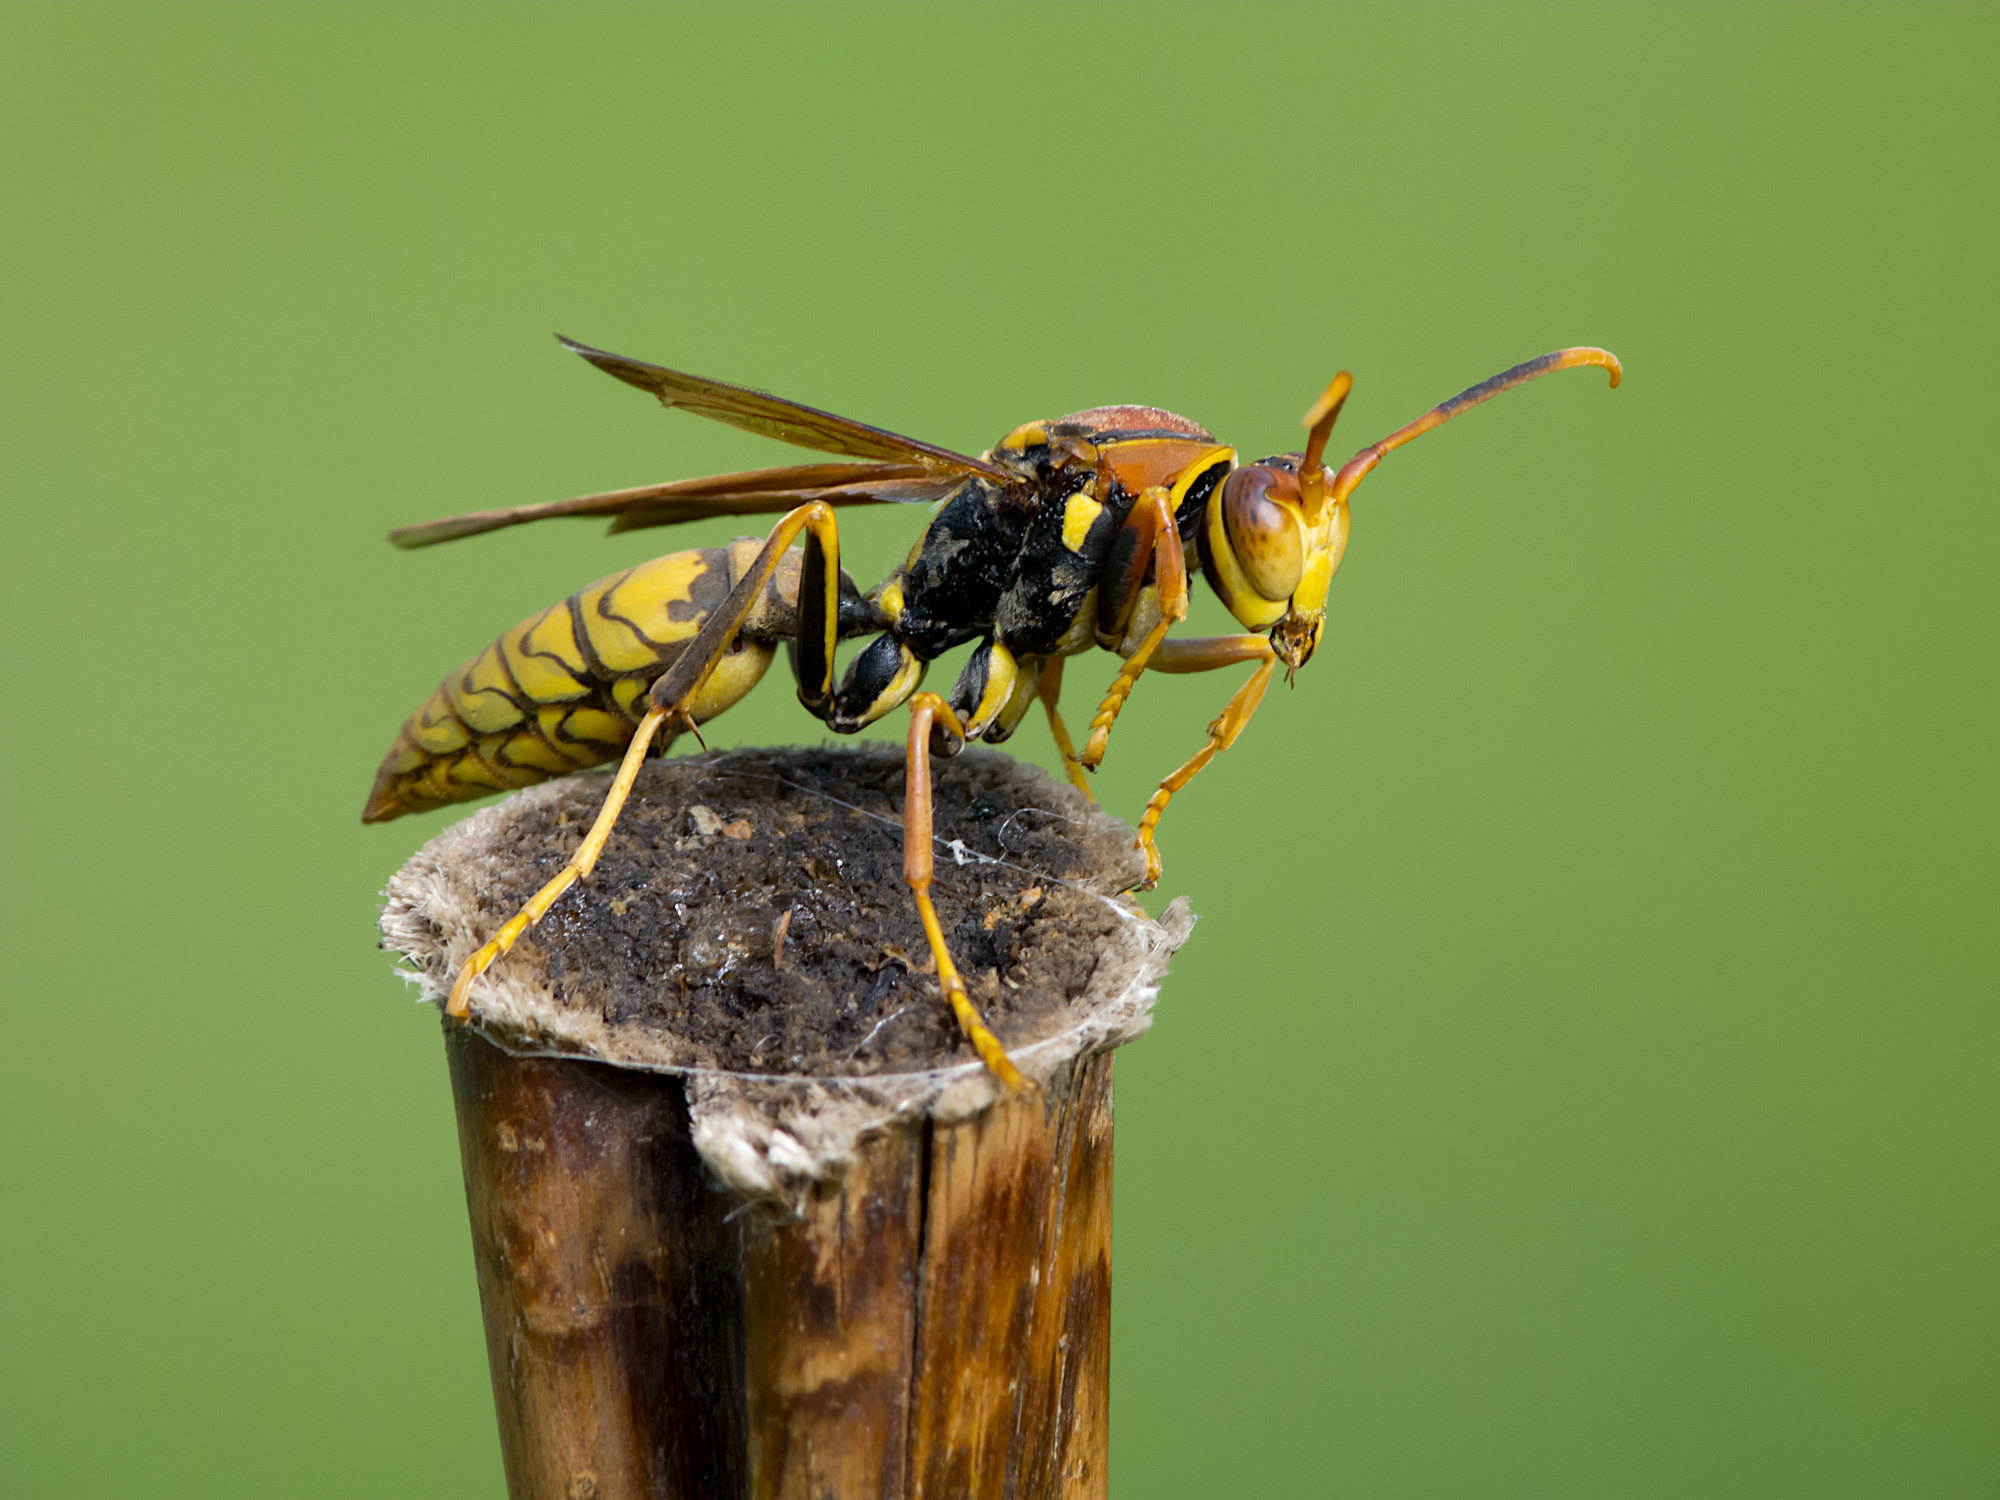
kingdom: Animalia
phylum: Arthropoda
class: Insecta
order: Hymenoptera
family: Eumenidae
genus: Polistes
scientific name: Polistes myersi
